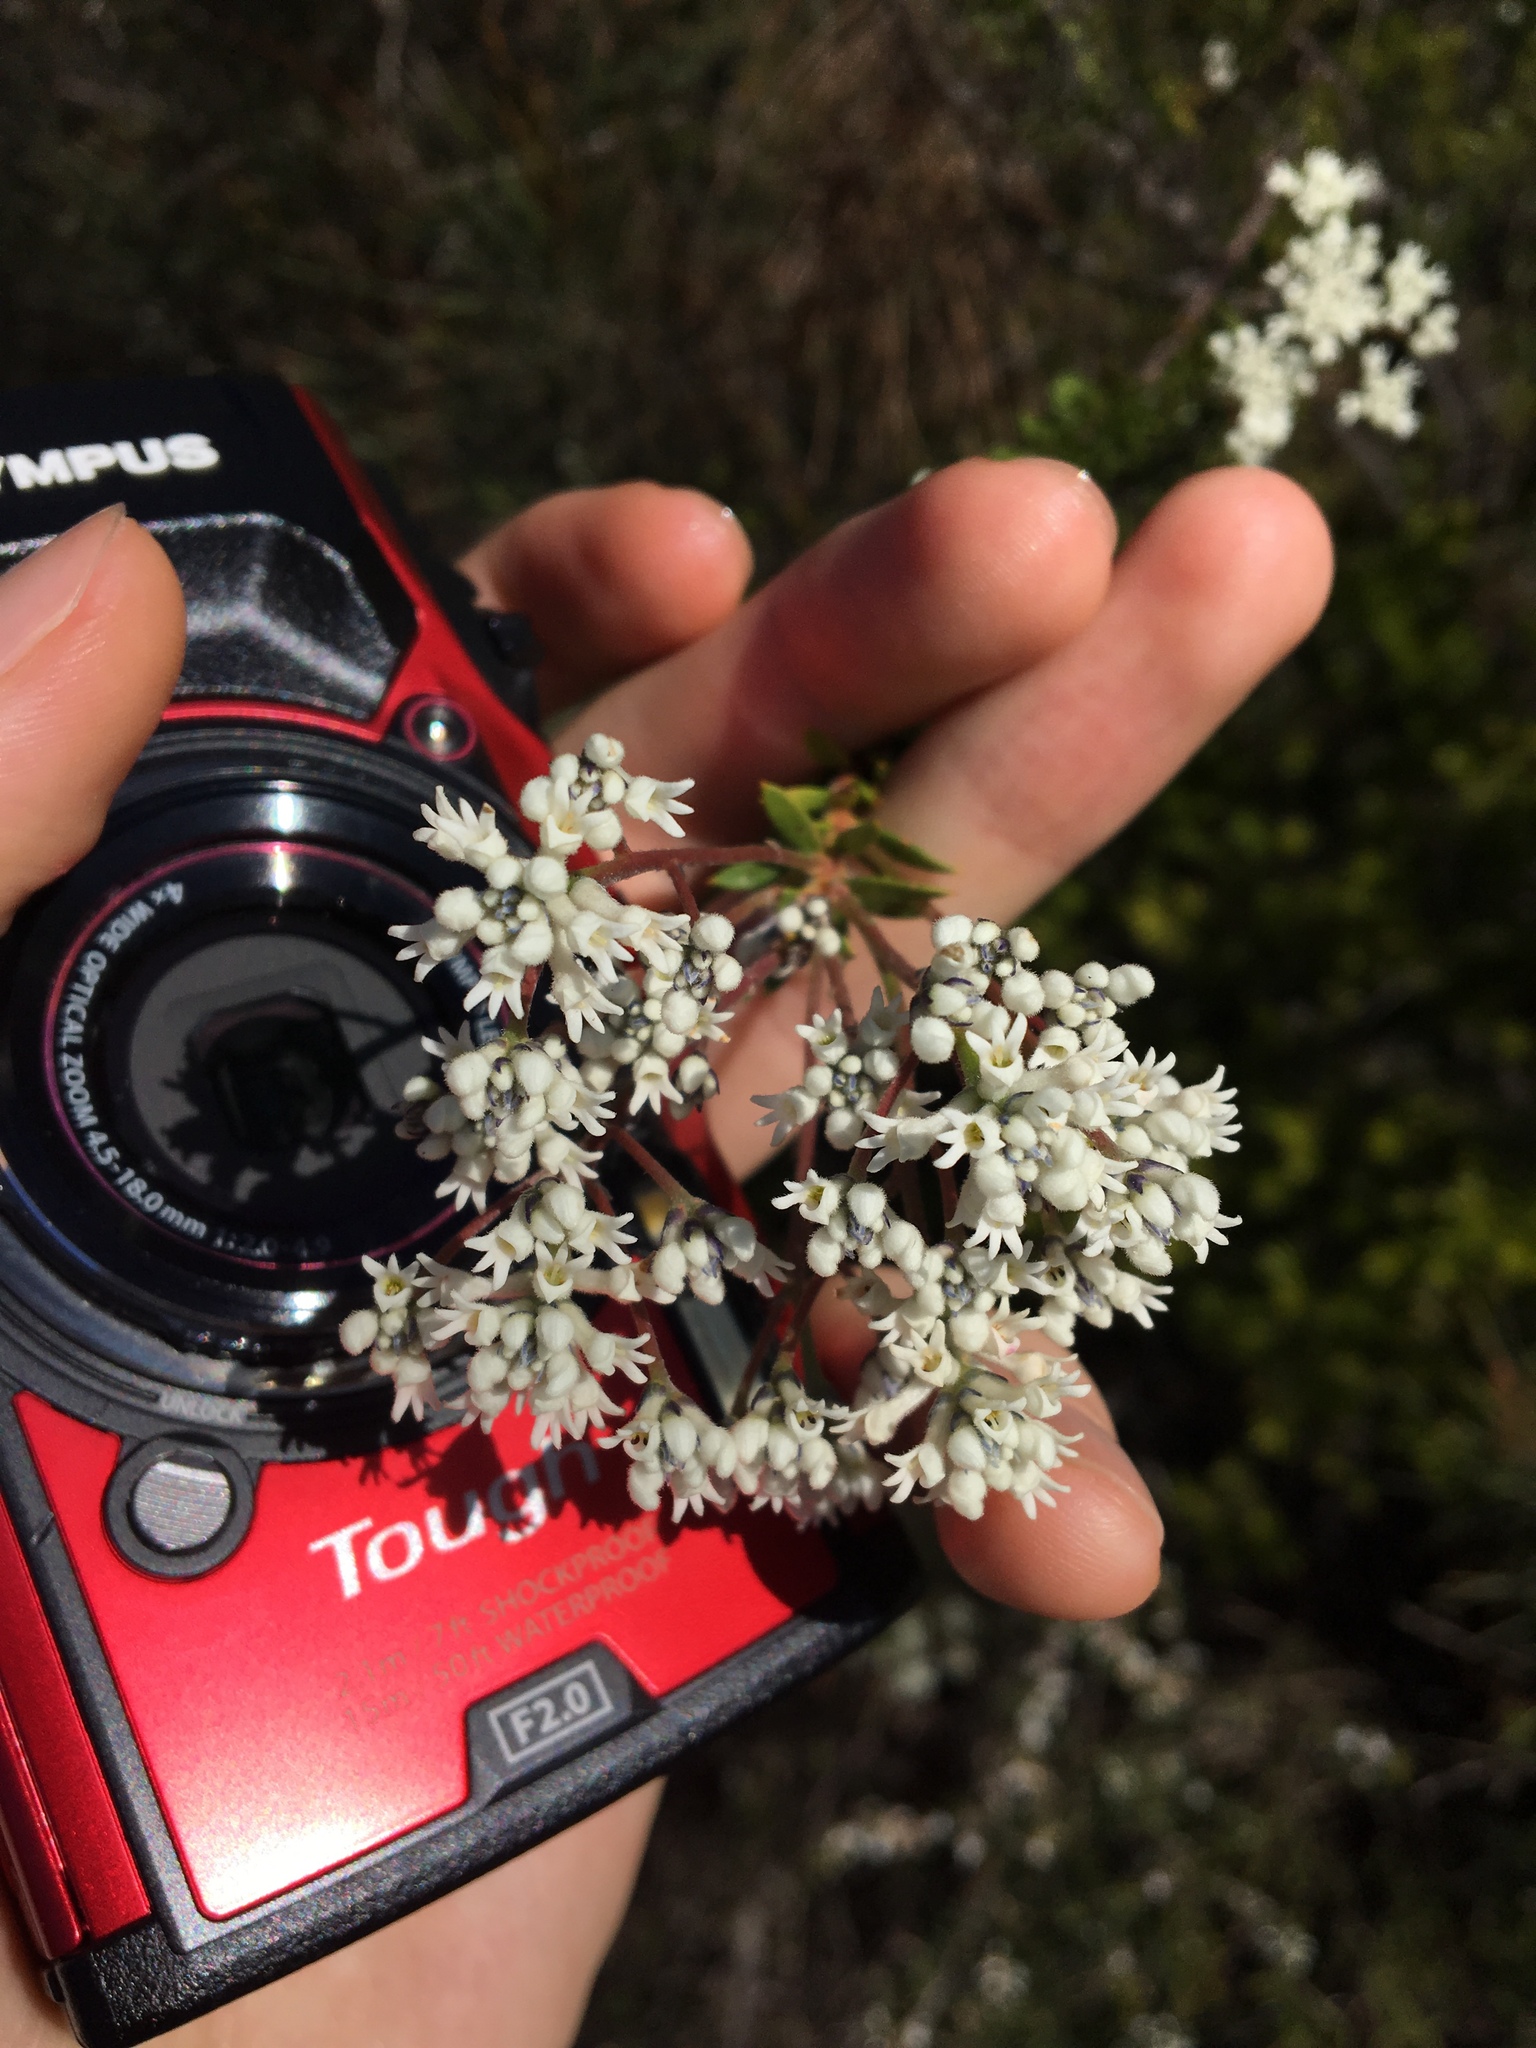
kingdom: Plantae
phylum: Tracheophyta
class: Magnoliopsida
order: Proteales
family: Proteaceae
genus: Conospermum
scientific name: Conospermum taxifolium
